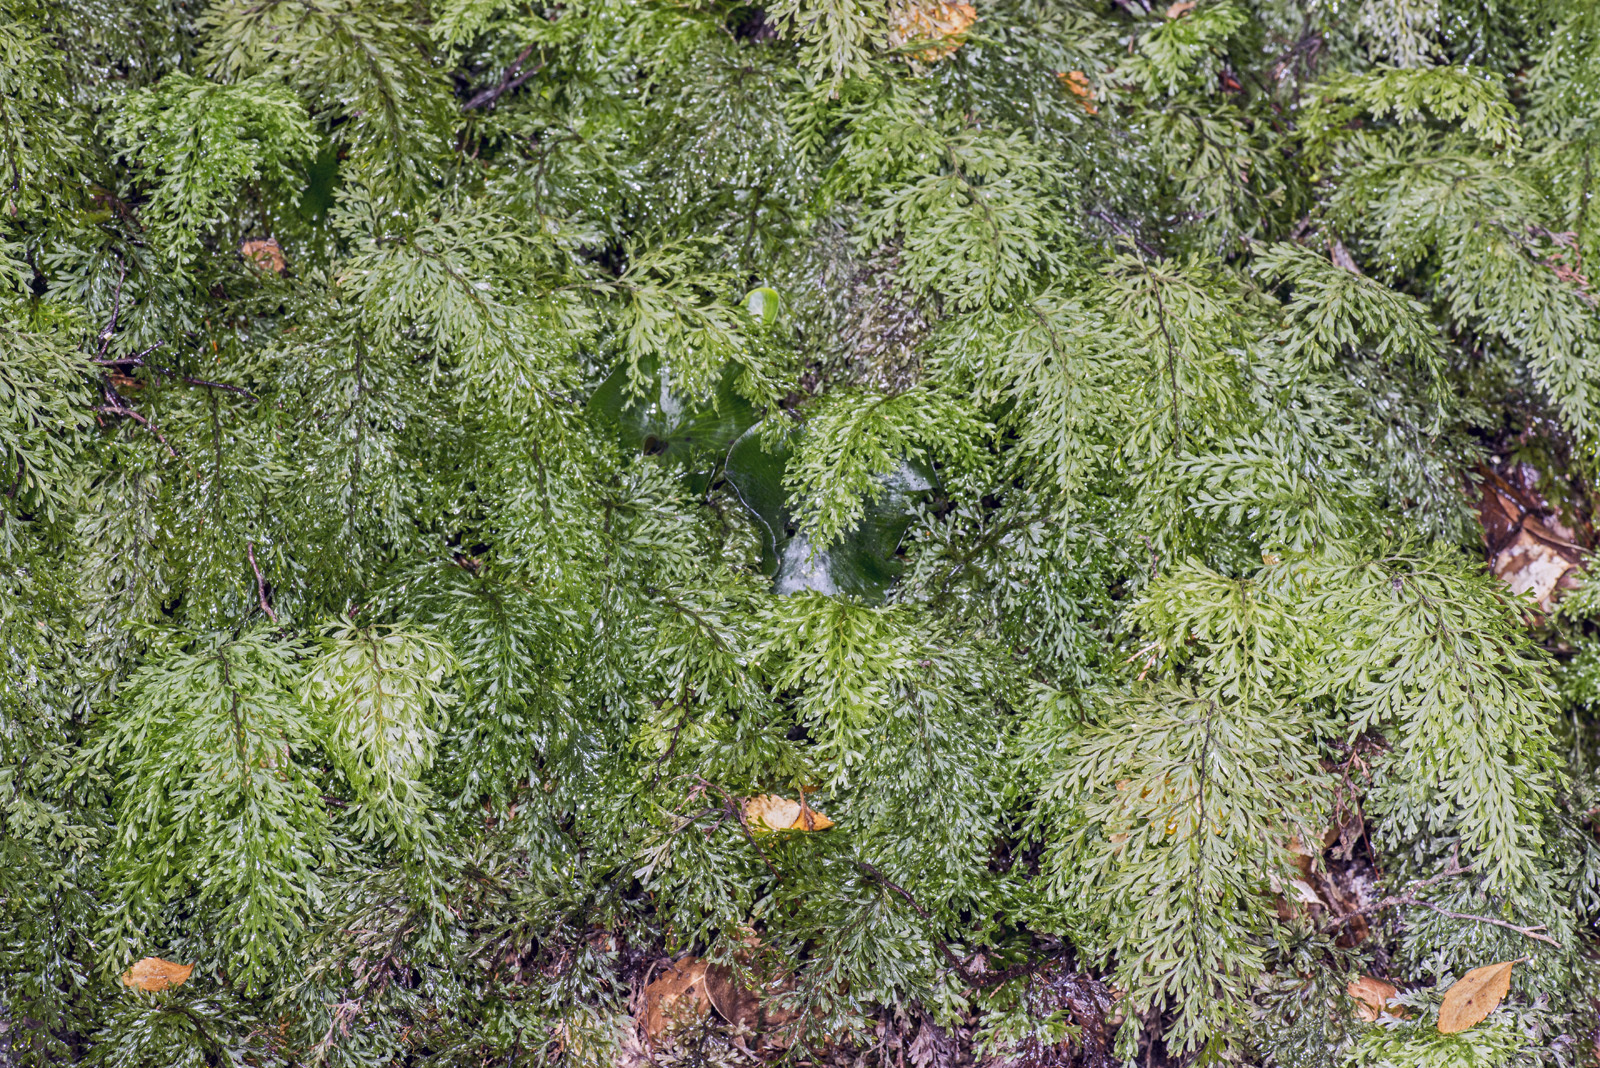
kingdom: Plantae
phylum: Tracheophyta
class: Polypodiopsida
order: Hymenophyllales
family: Hymenophyllaceae
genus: Hymenophyllum
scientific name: Hymenophyllum demissum
